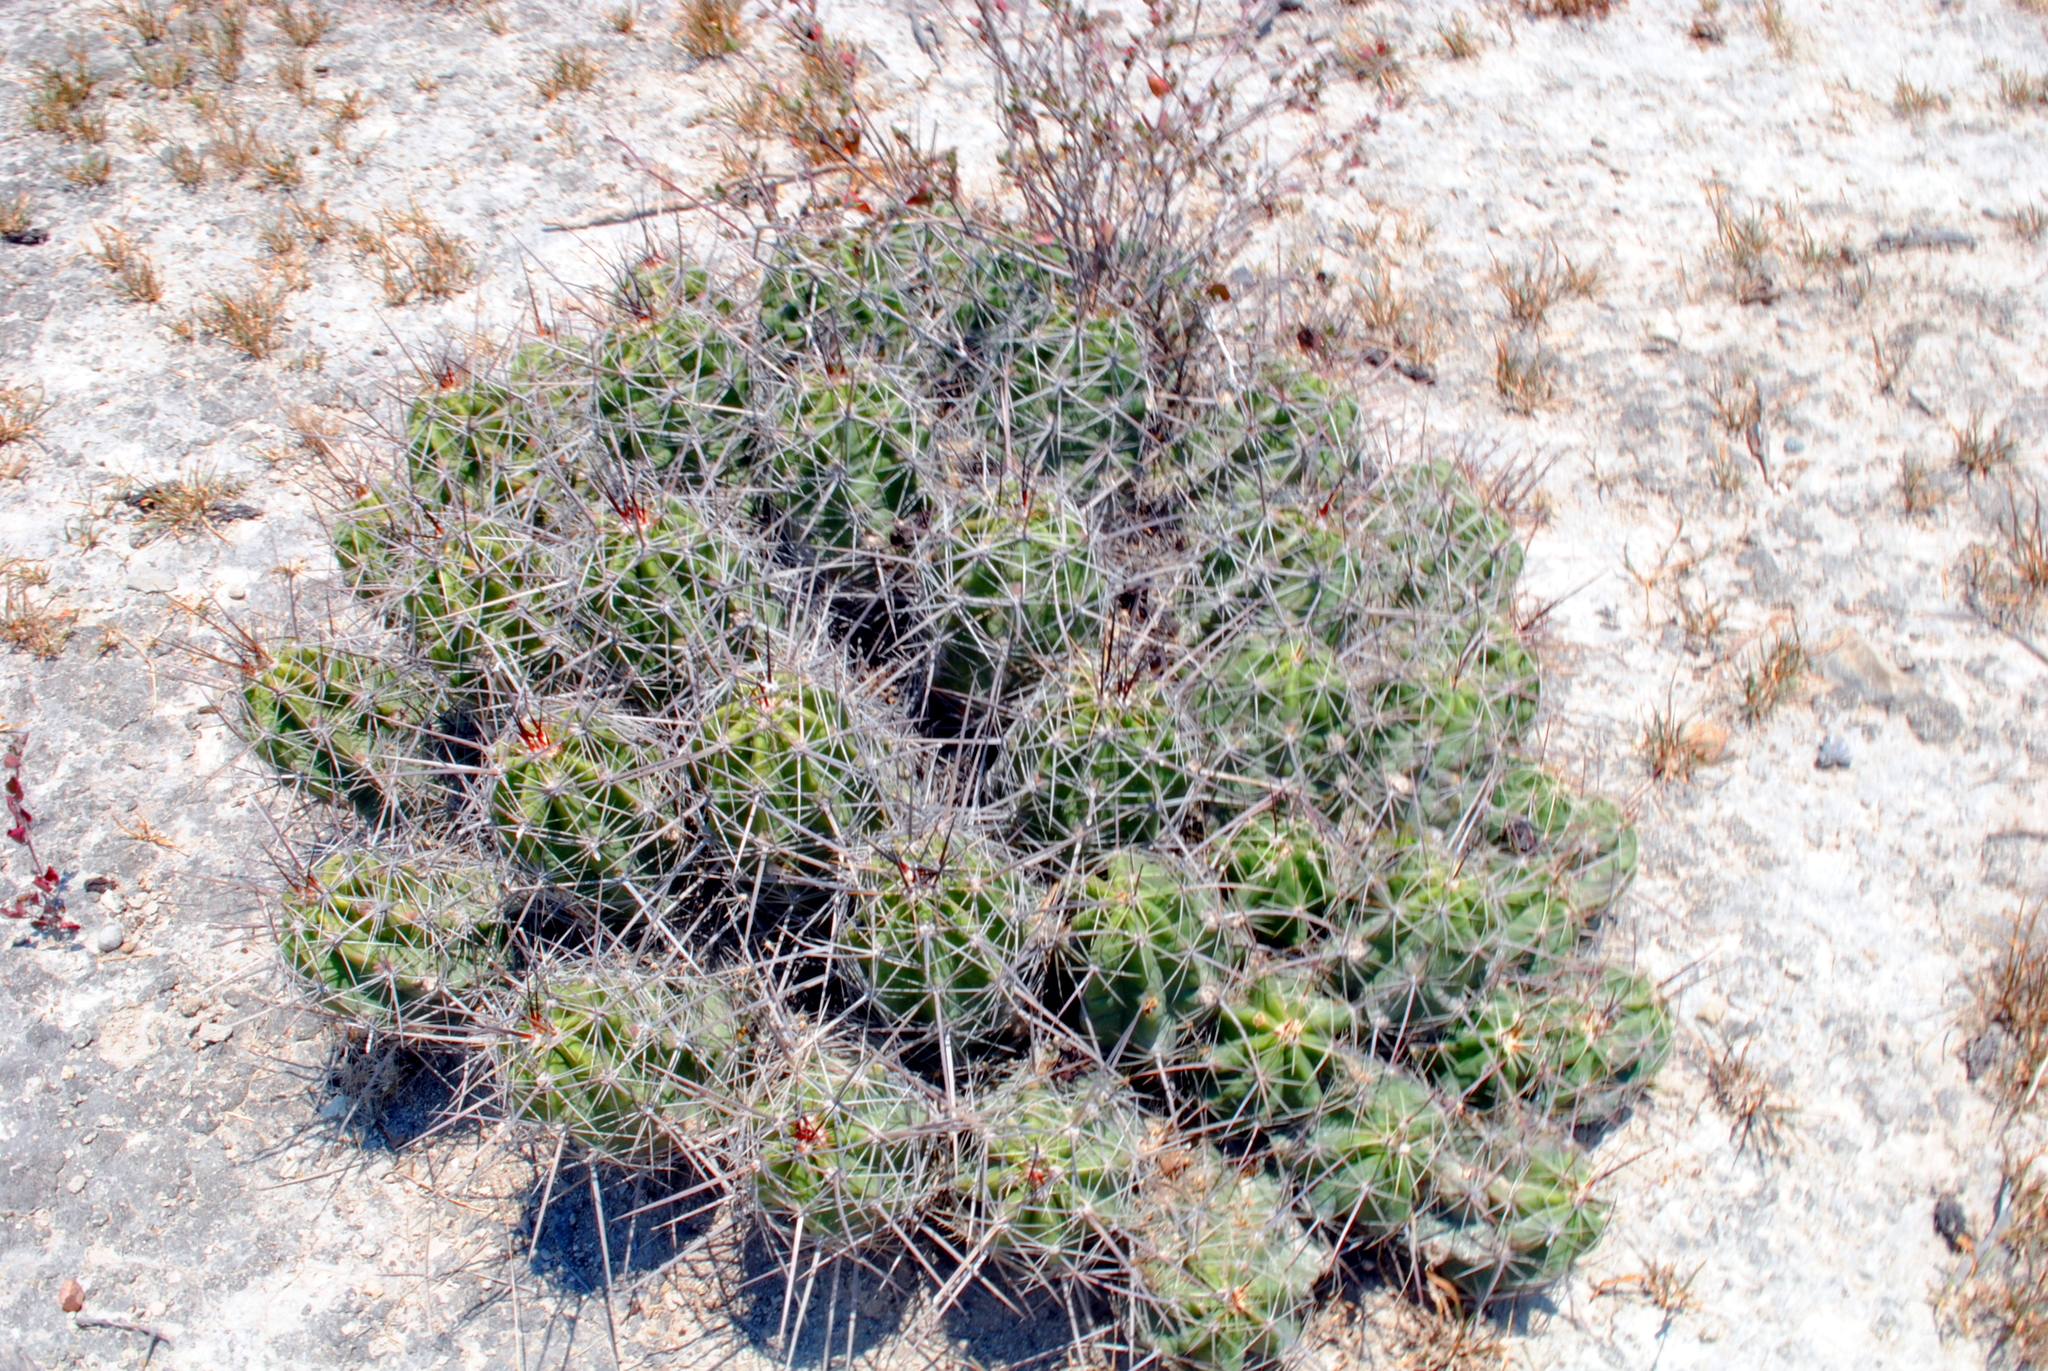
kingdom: Plantae
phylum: Tracheophyta
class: Magnoliopsida
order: Caryophyllales
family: Cactaceae
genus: Echinocereus
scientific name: Echinocereus enneacanthus
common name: Pitaya
